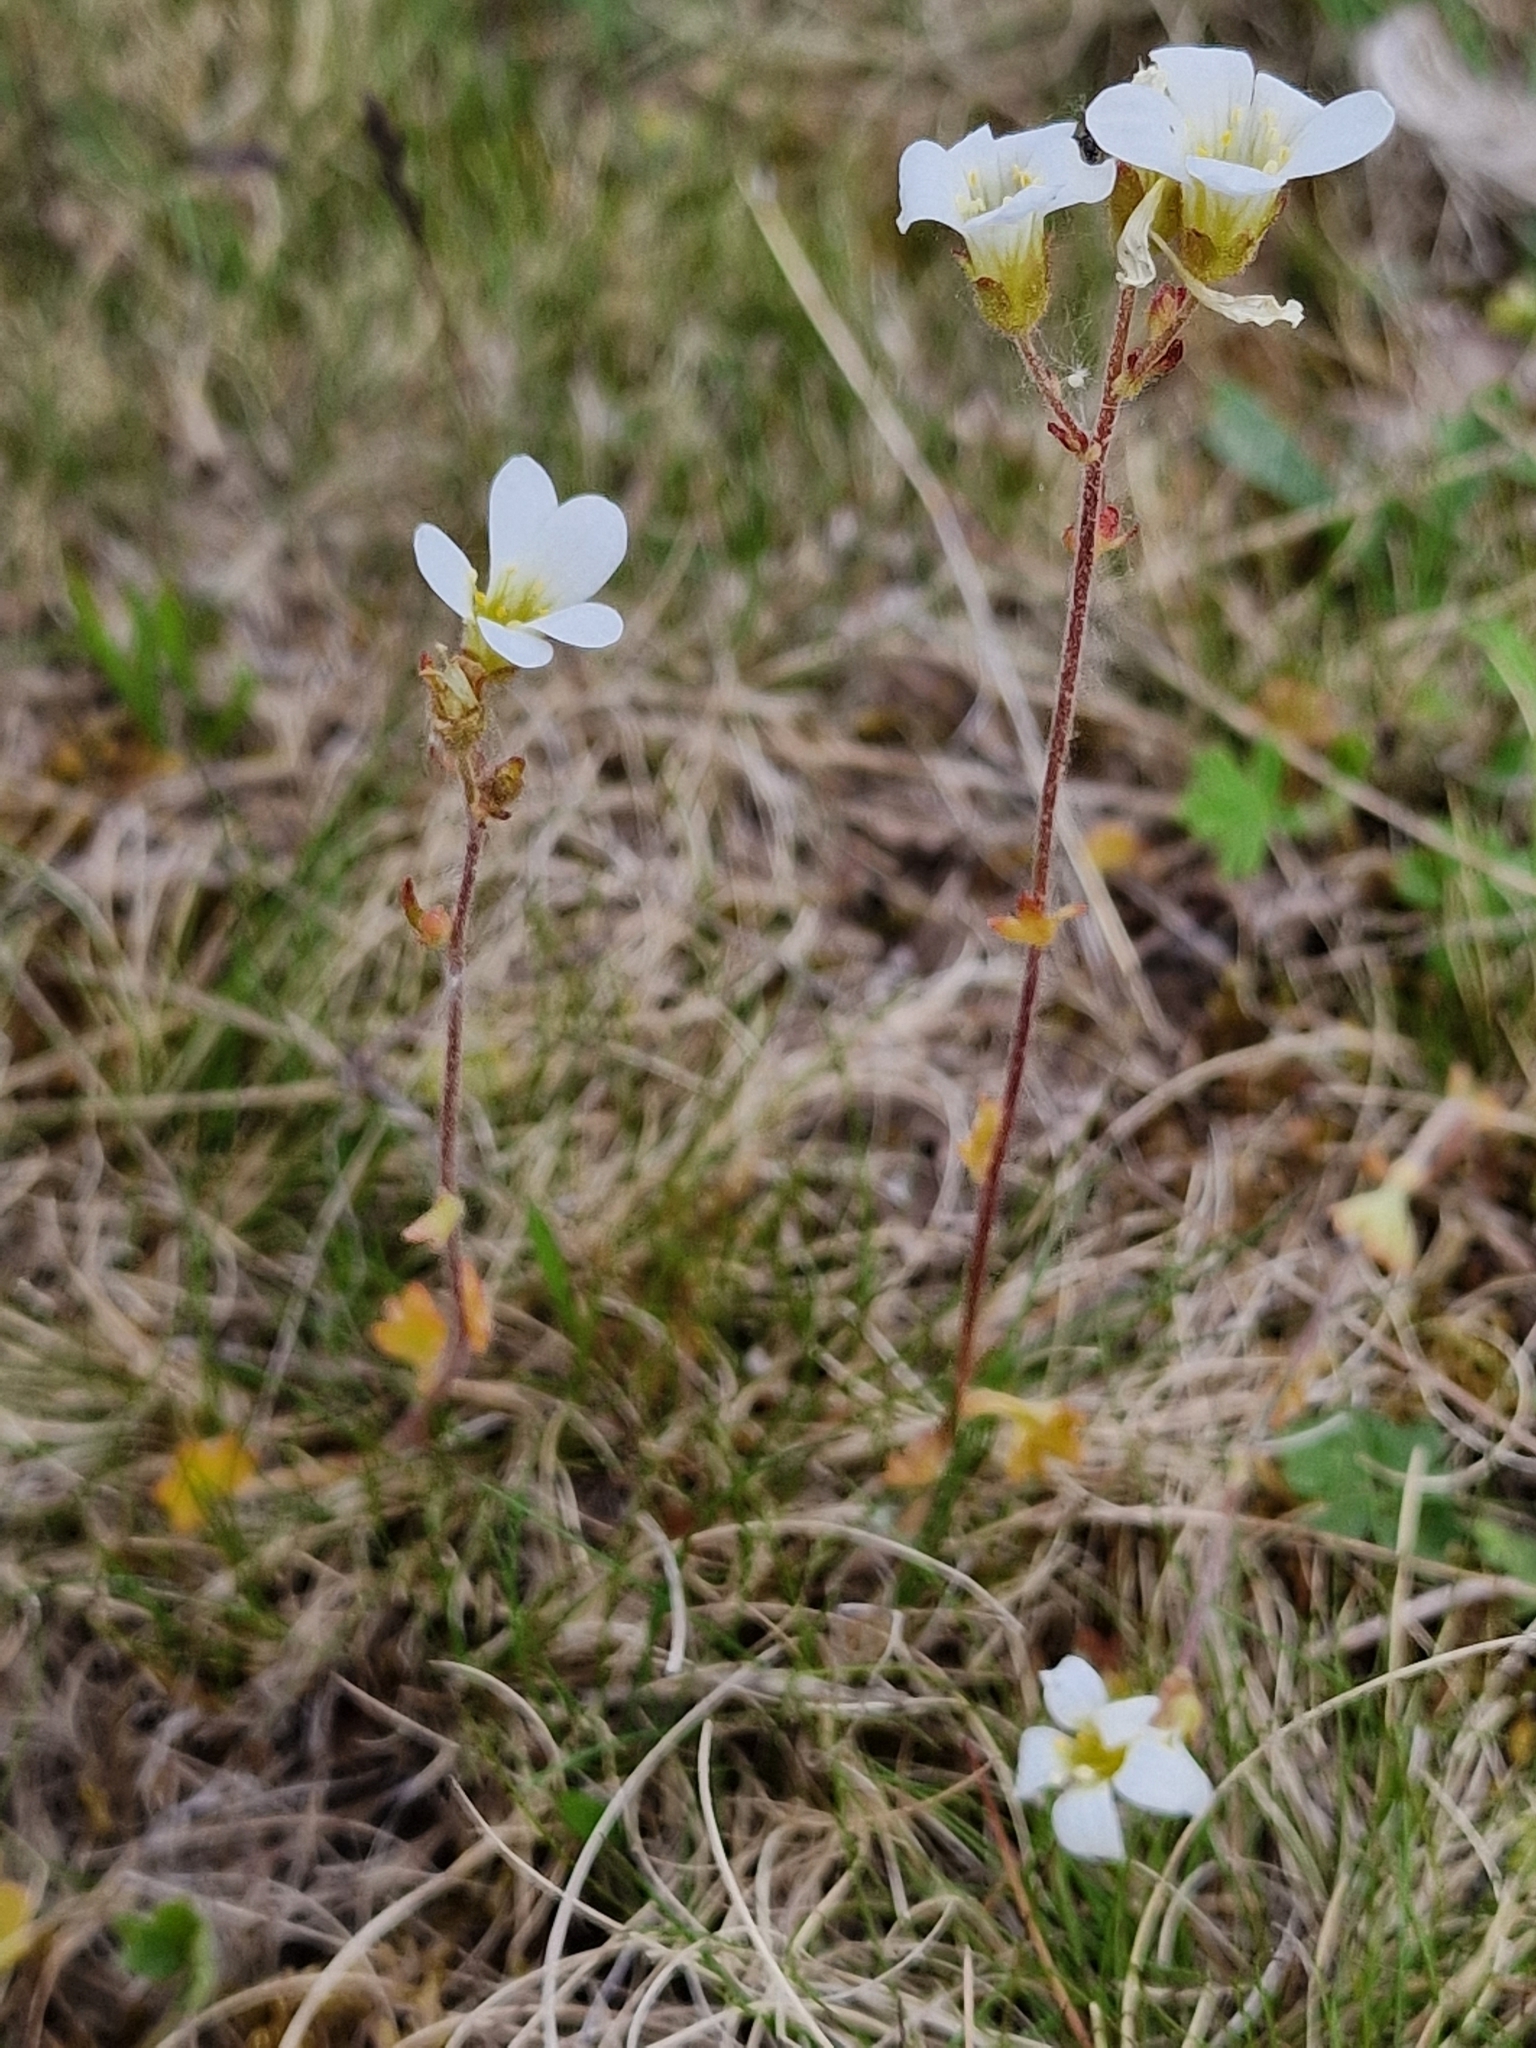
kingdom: Plantae
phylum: Tracheophyta
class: Magnoliopsida
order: Saxifragales
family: Saxifragaceae
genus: Saxifraga
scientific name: Saxifraga granulata
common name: Meadow saxifrage
